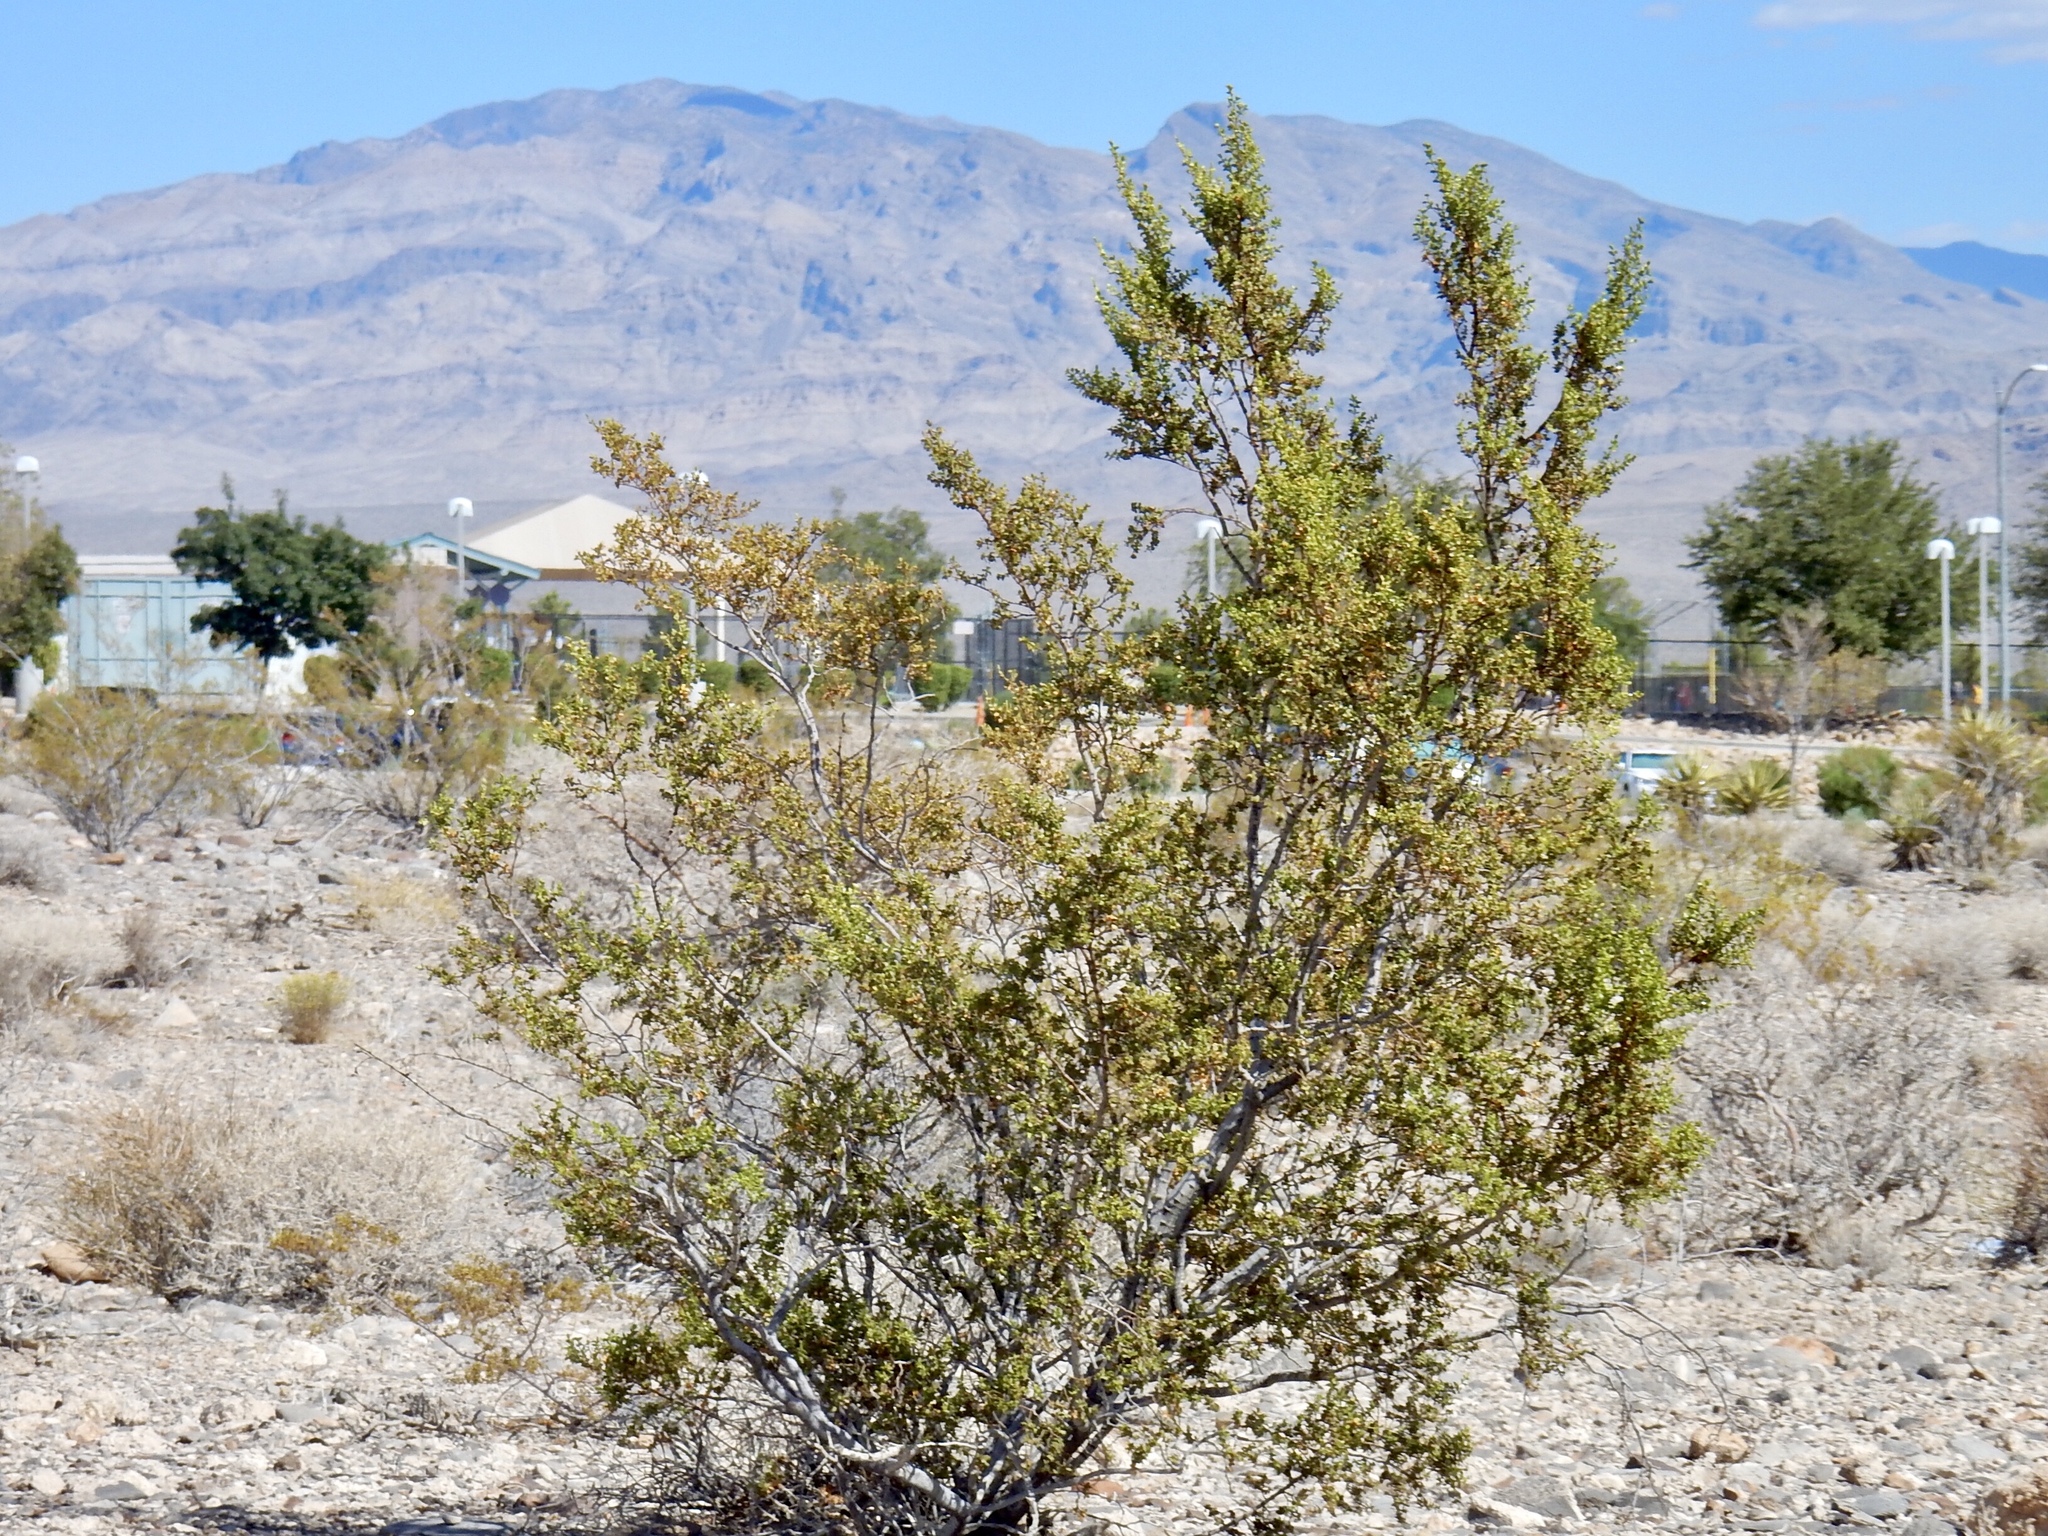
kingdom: Plantae
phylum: Tracheophyta
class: Magnoliopsida
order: Zygophyllales
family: Zygophyllaceae
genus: Larrea
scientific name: Larrea tridentata
